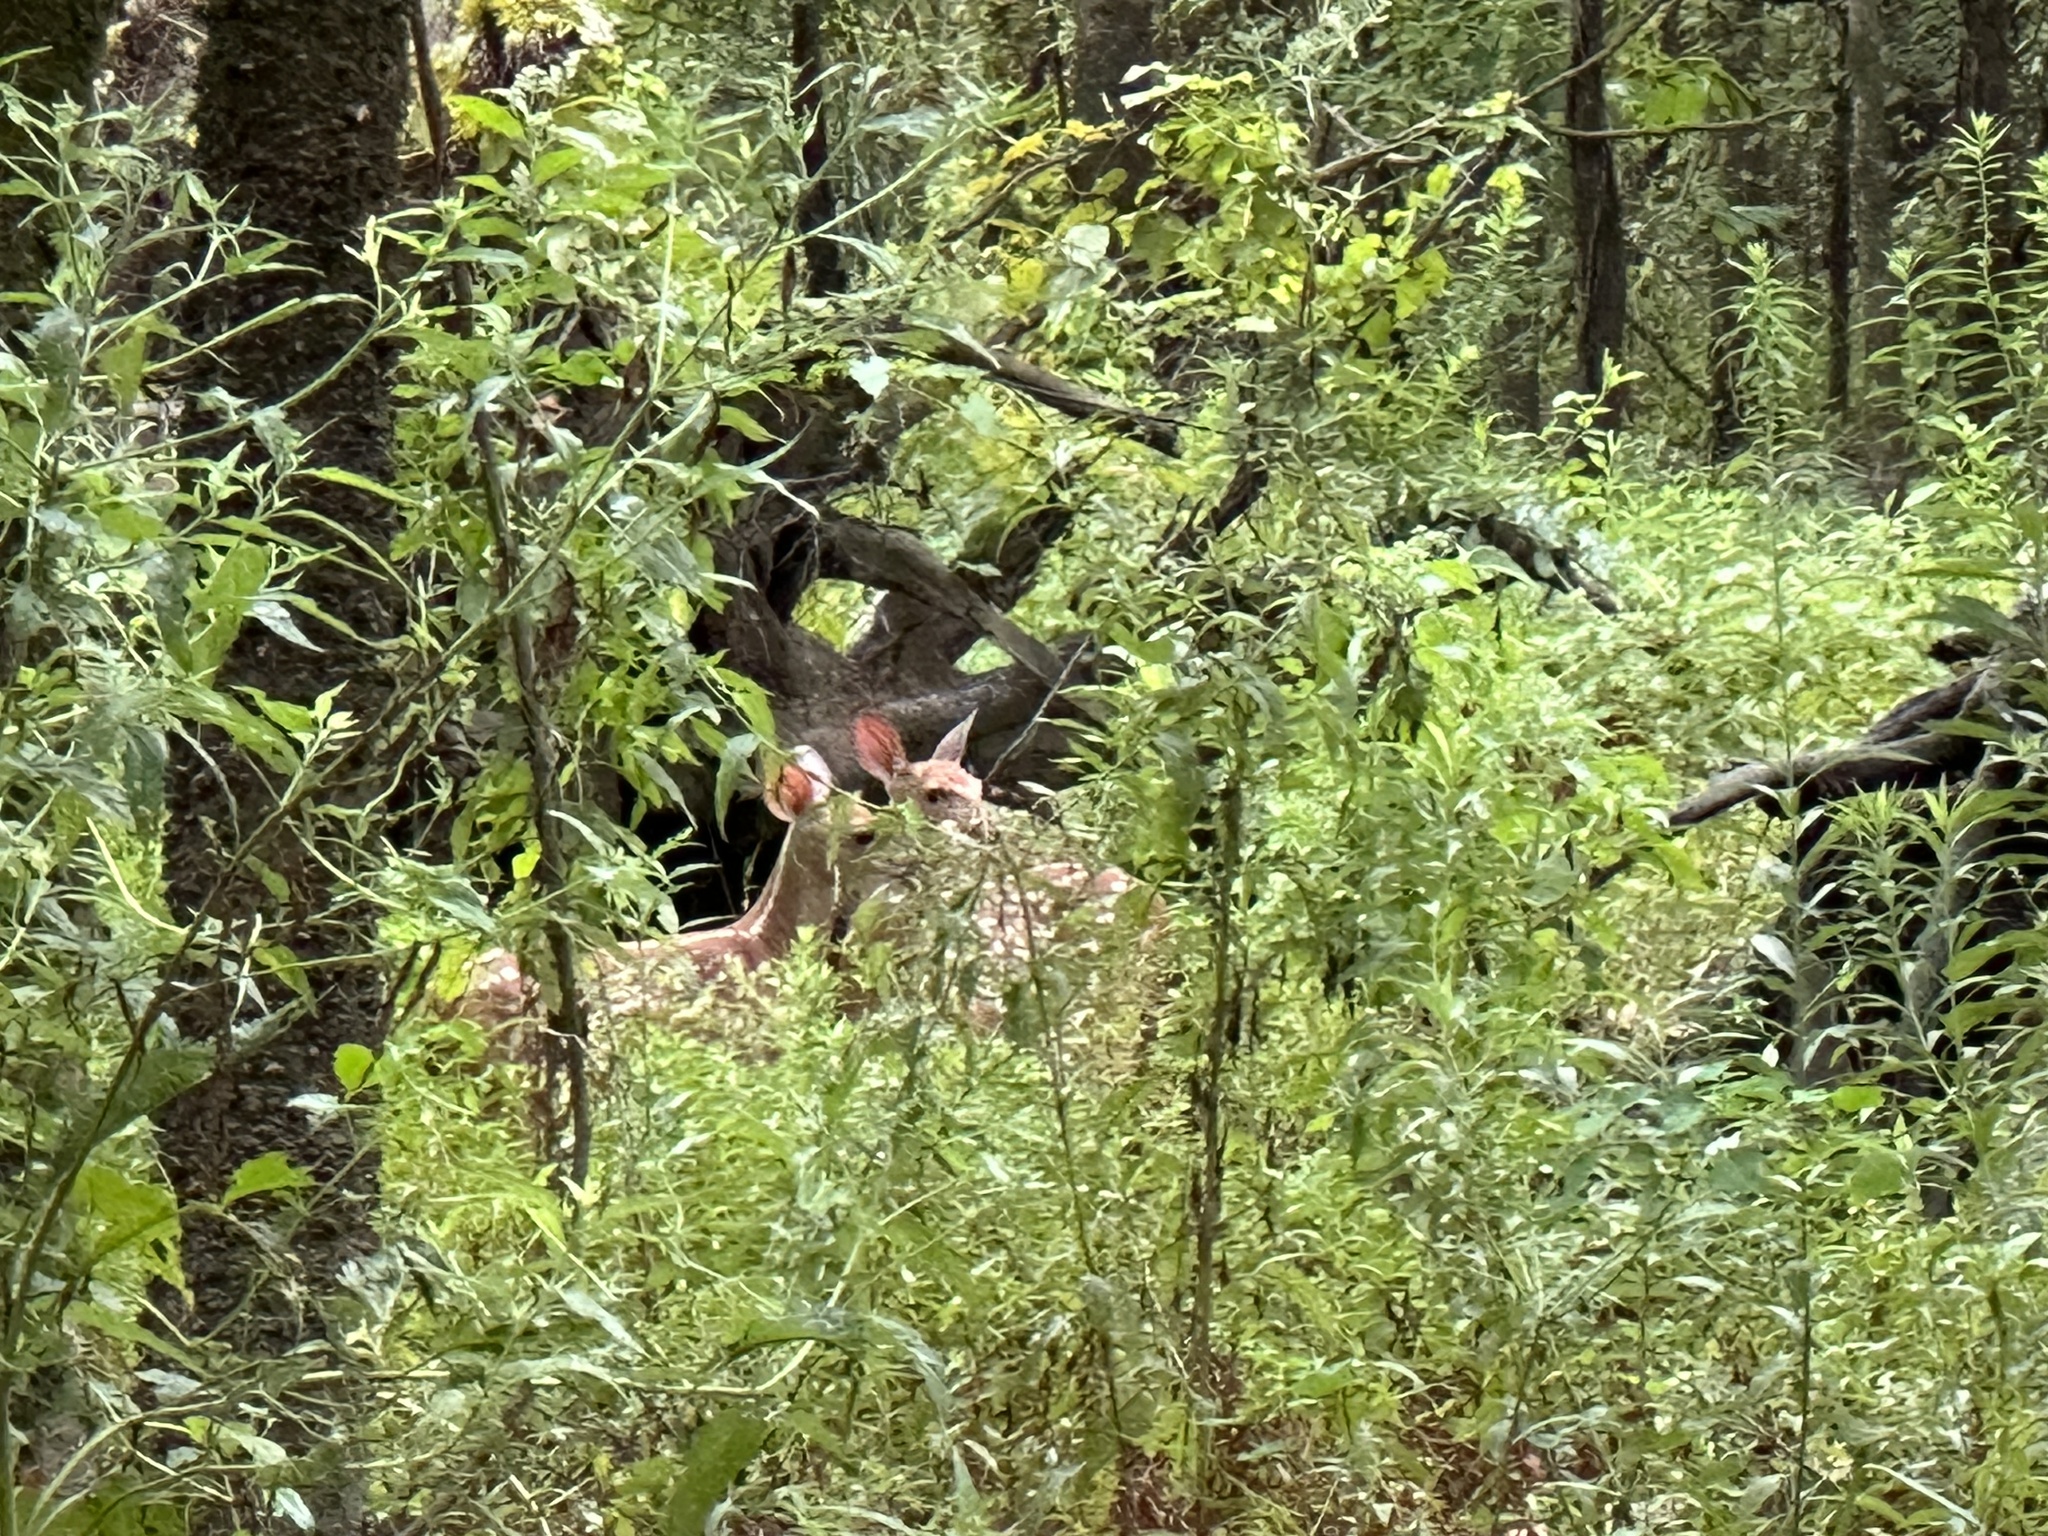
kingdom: Animalia
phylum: Chordata
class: Mammalia
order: Artiodactyla
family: Cervidae
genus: Odocoileus
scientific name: Odocoileus virginianus
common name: White-tailed deer
